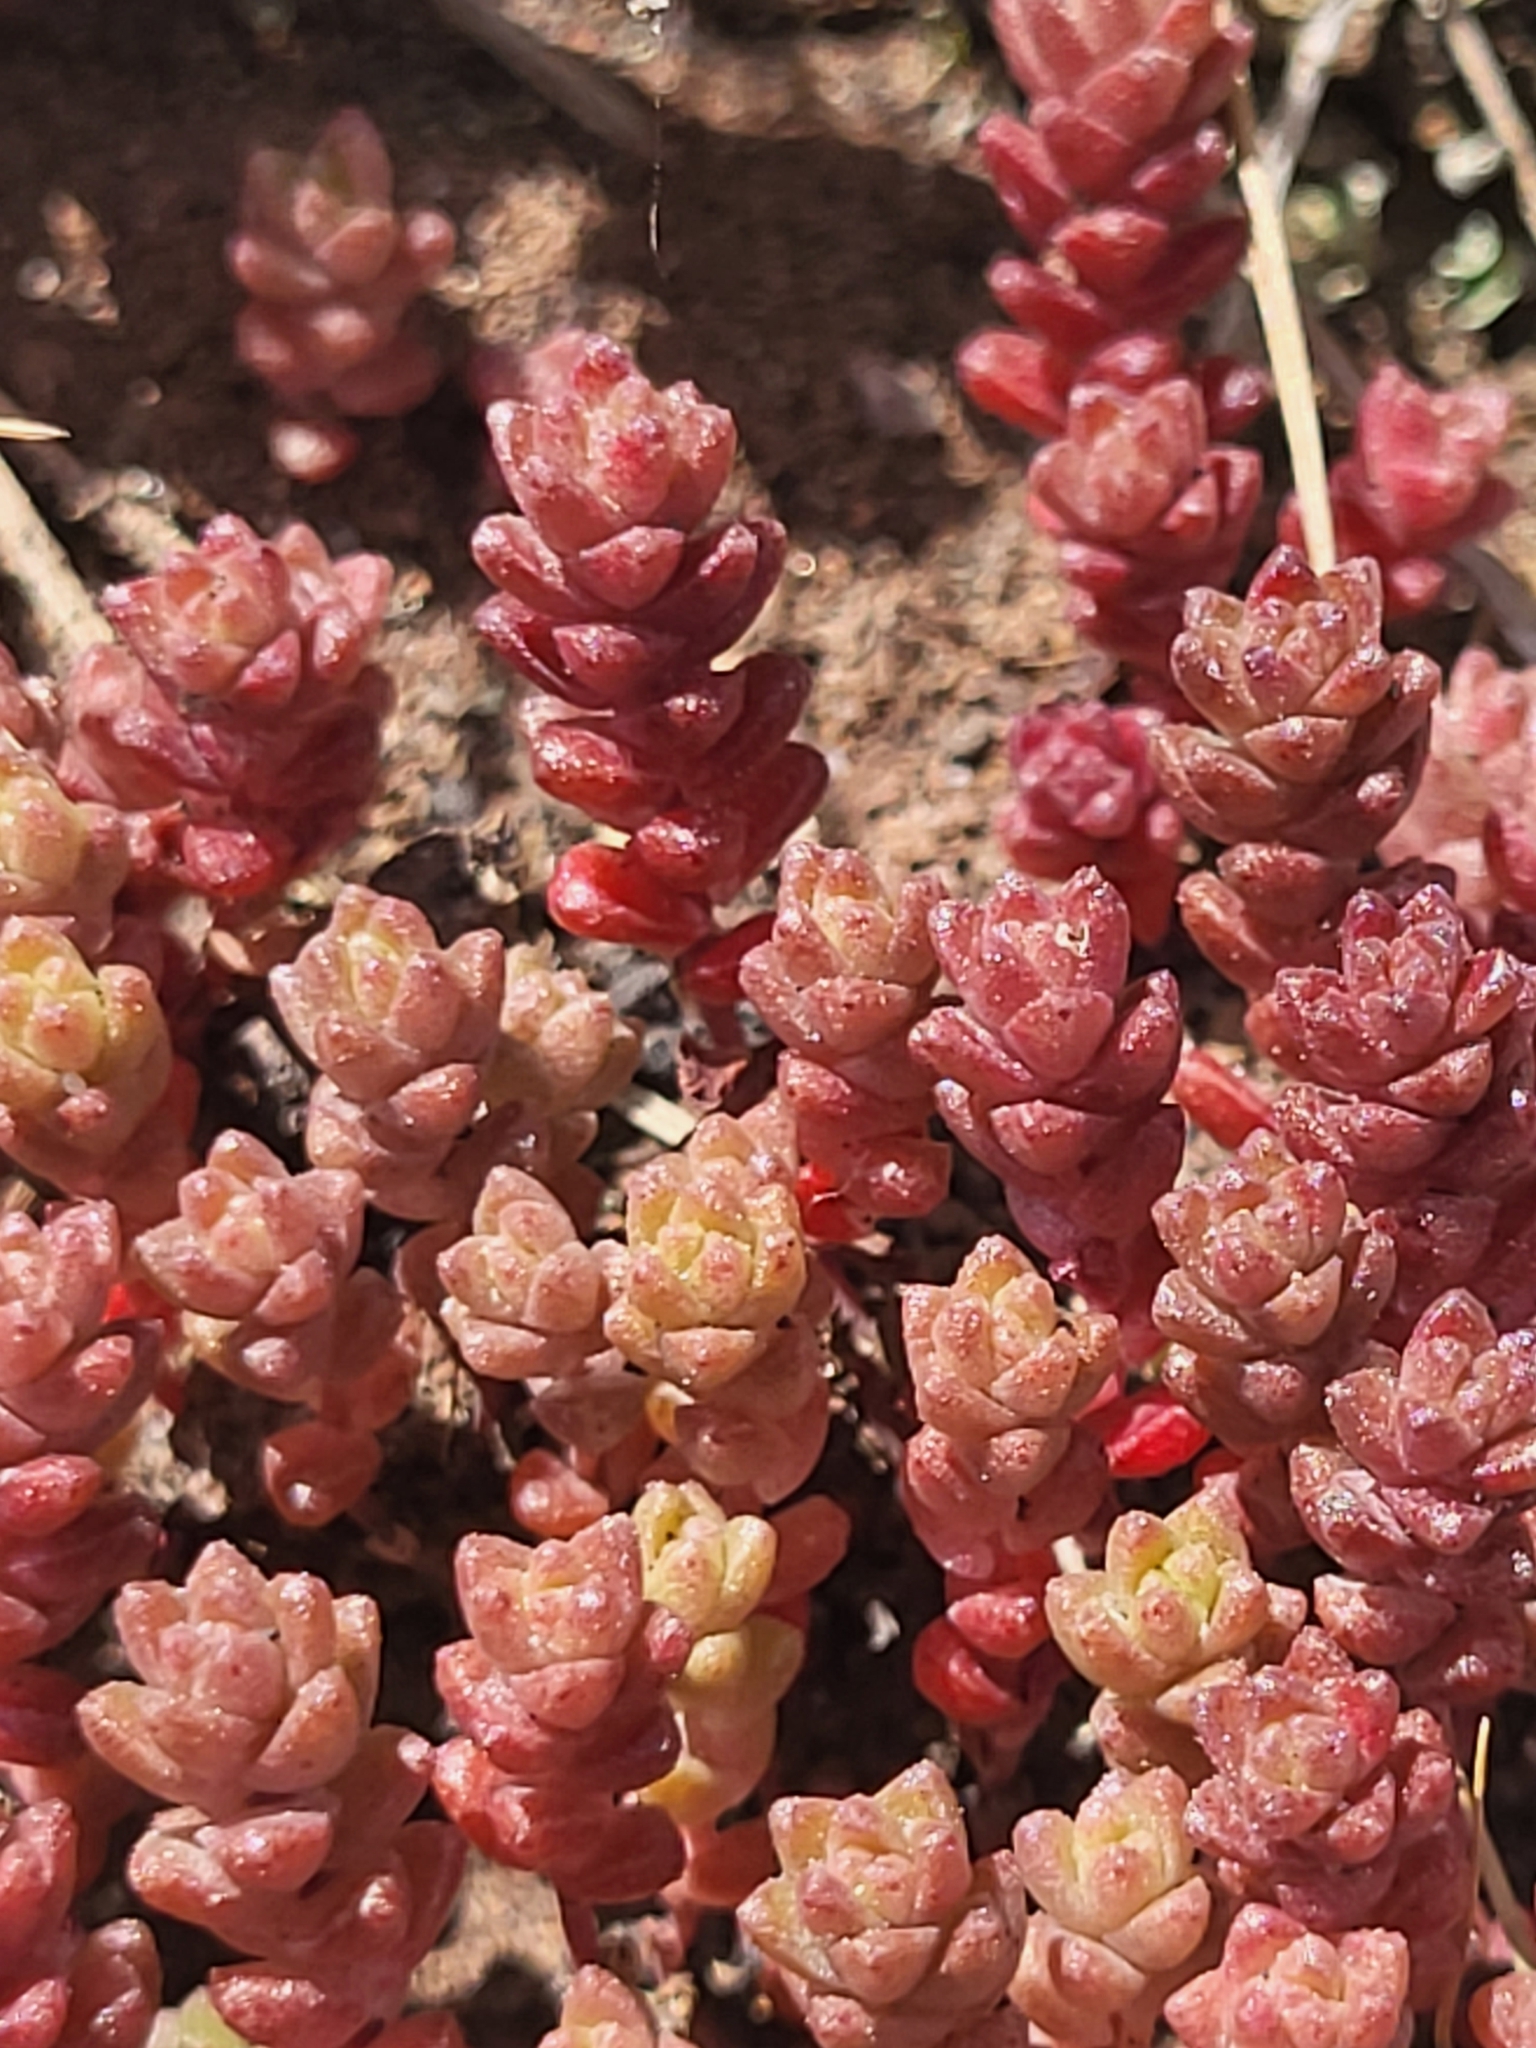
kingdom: Plantae
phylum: Tracheophyta
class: Magnoliopsida
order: Saxifragales
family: Crassulaceae
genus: Sedum
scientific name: Sedum anglicum
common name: English stonecrop
